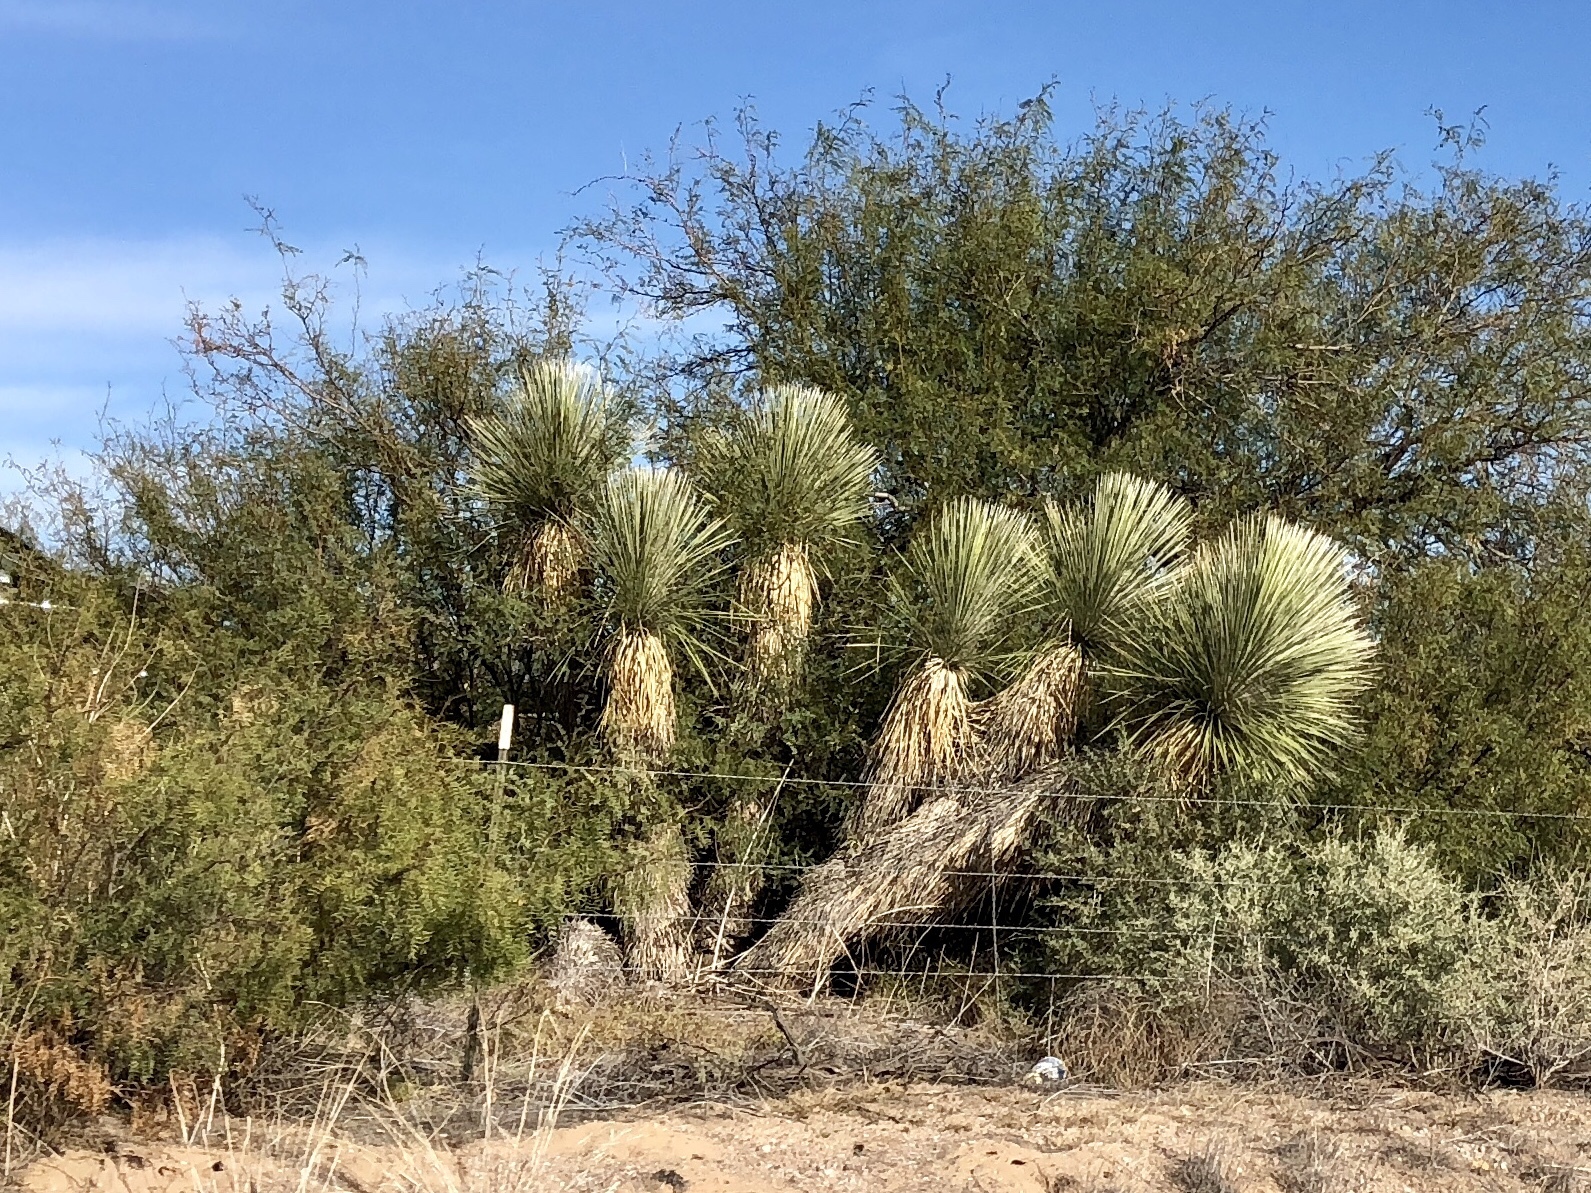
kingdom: Plantae
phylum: Tracheophyta
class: Liliopsida
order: Asparagales
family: Asparagaceae
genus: Yucca
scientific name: Yucca elata
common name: Palmella
